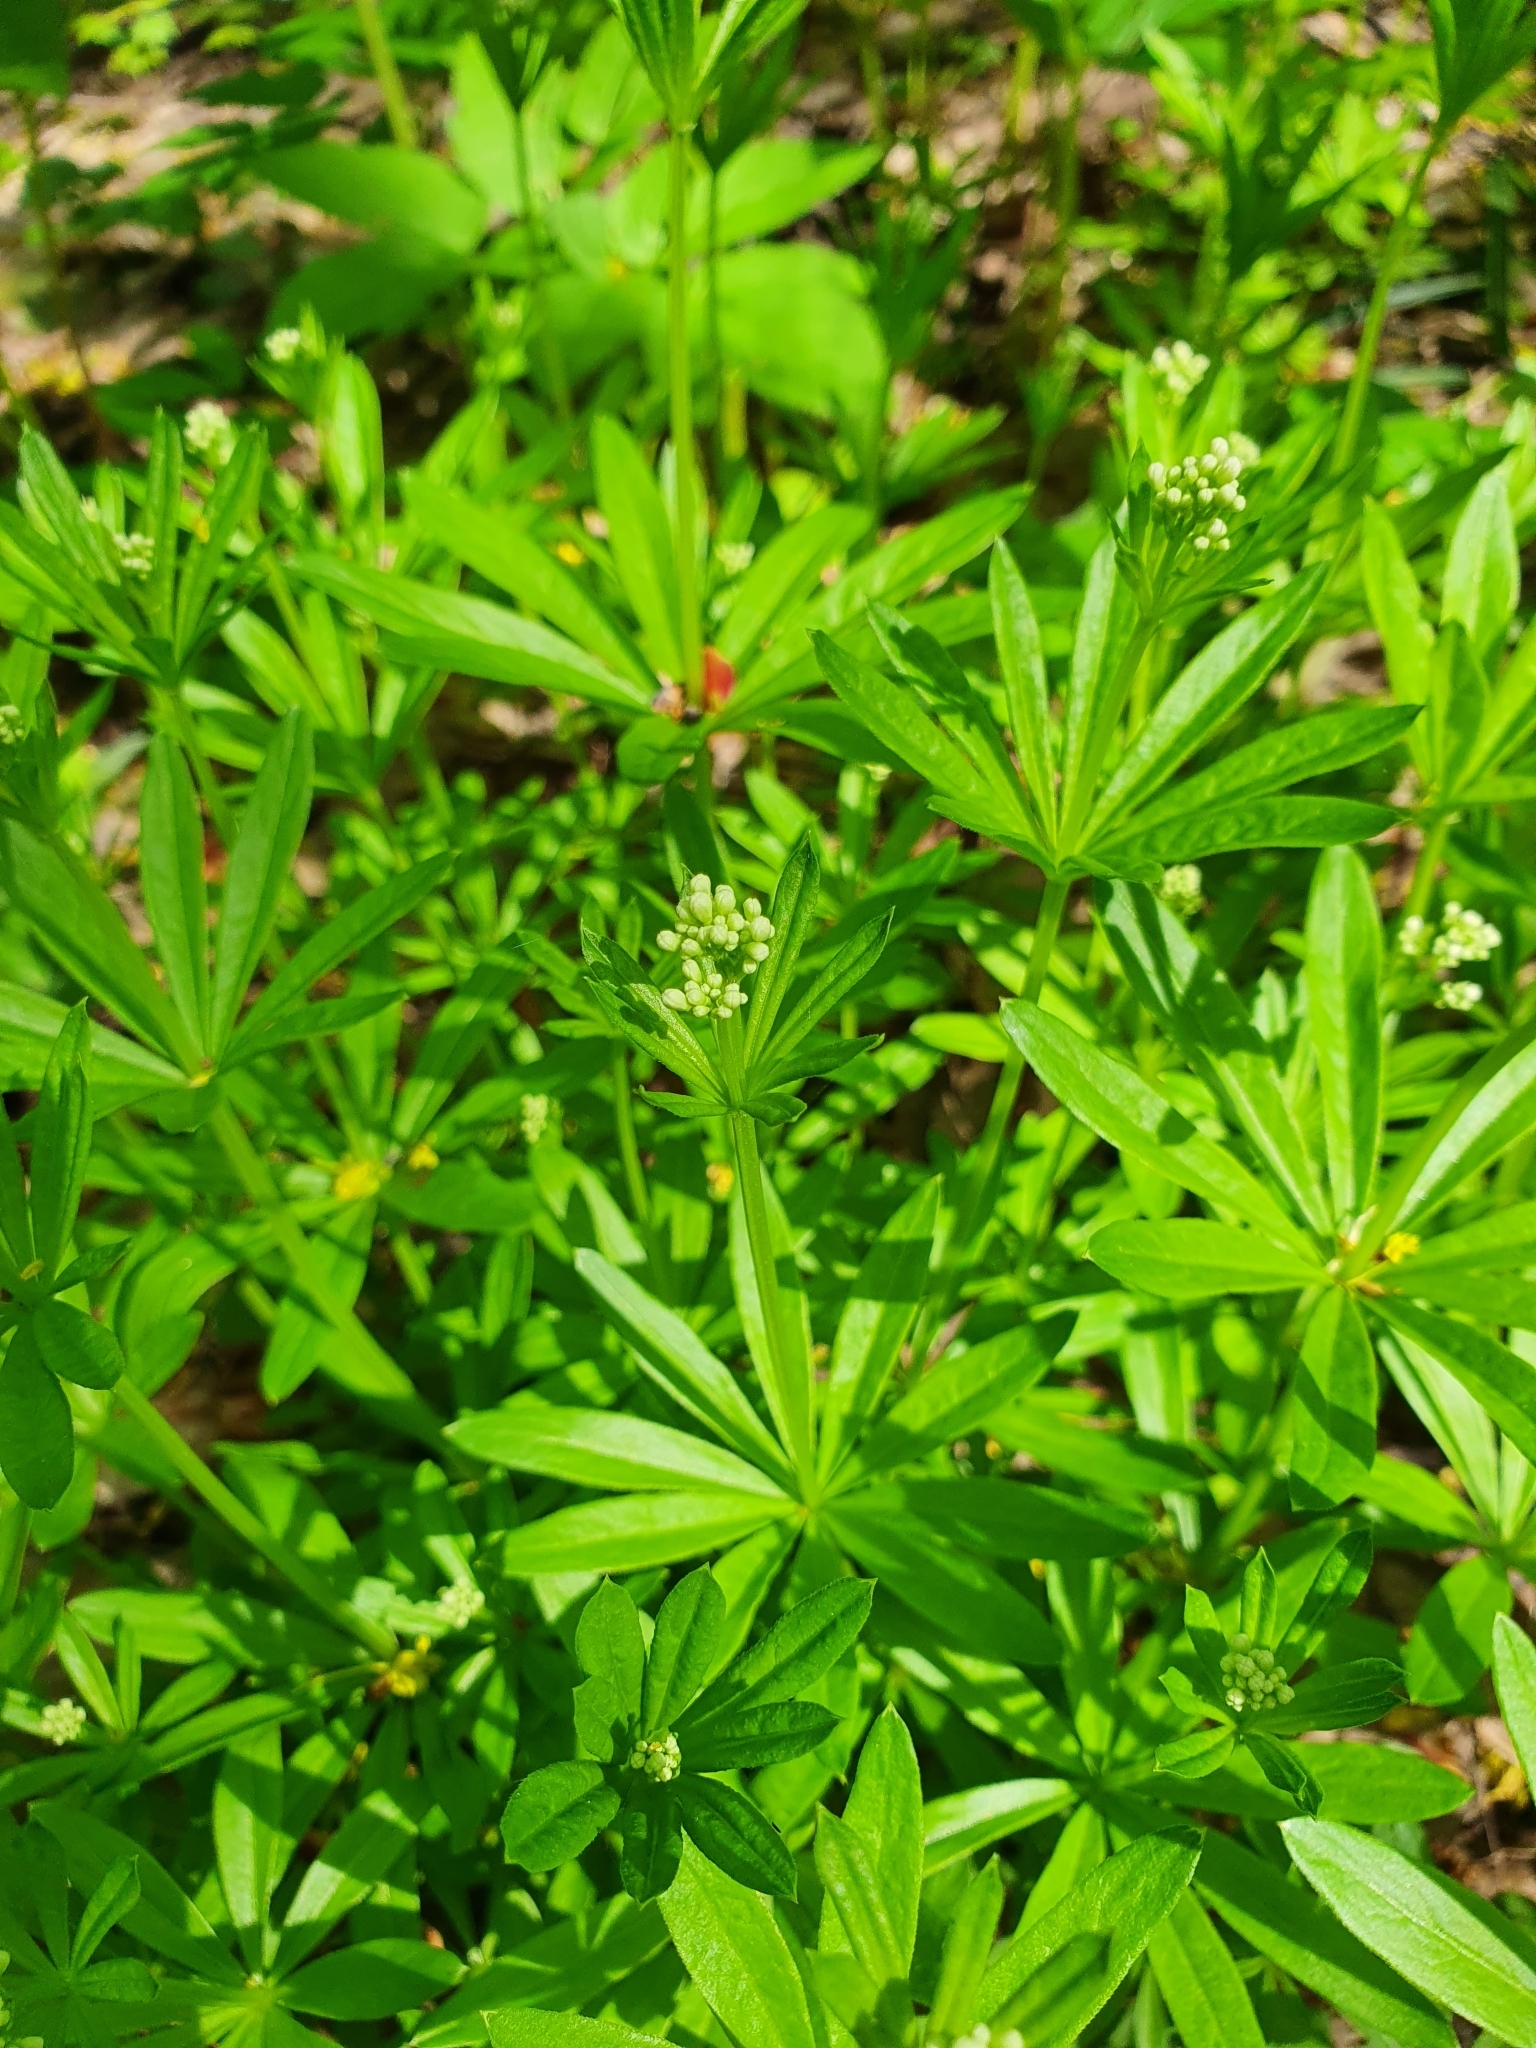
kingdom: Plantae
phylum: Tracheophyta
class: Magnoliopsida
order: Gentianales
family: Rubiaceae
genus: Galium
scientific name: Galium odoratum
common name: Sweet woodruff
